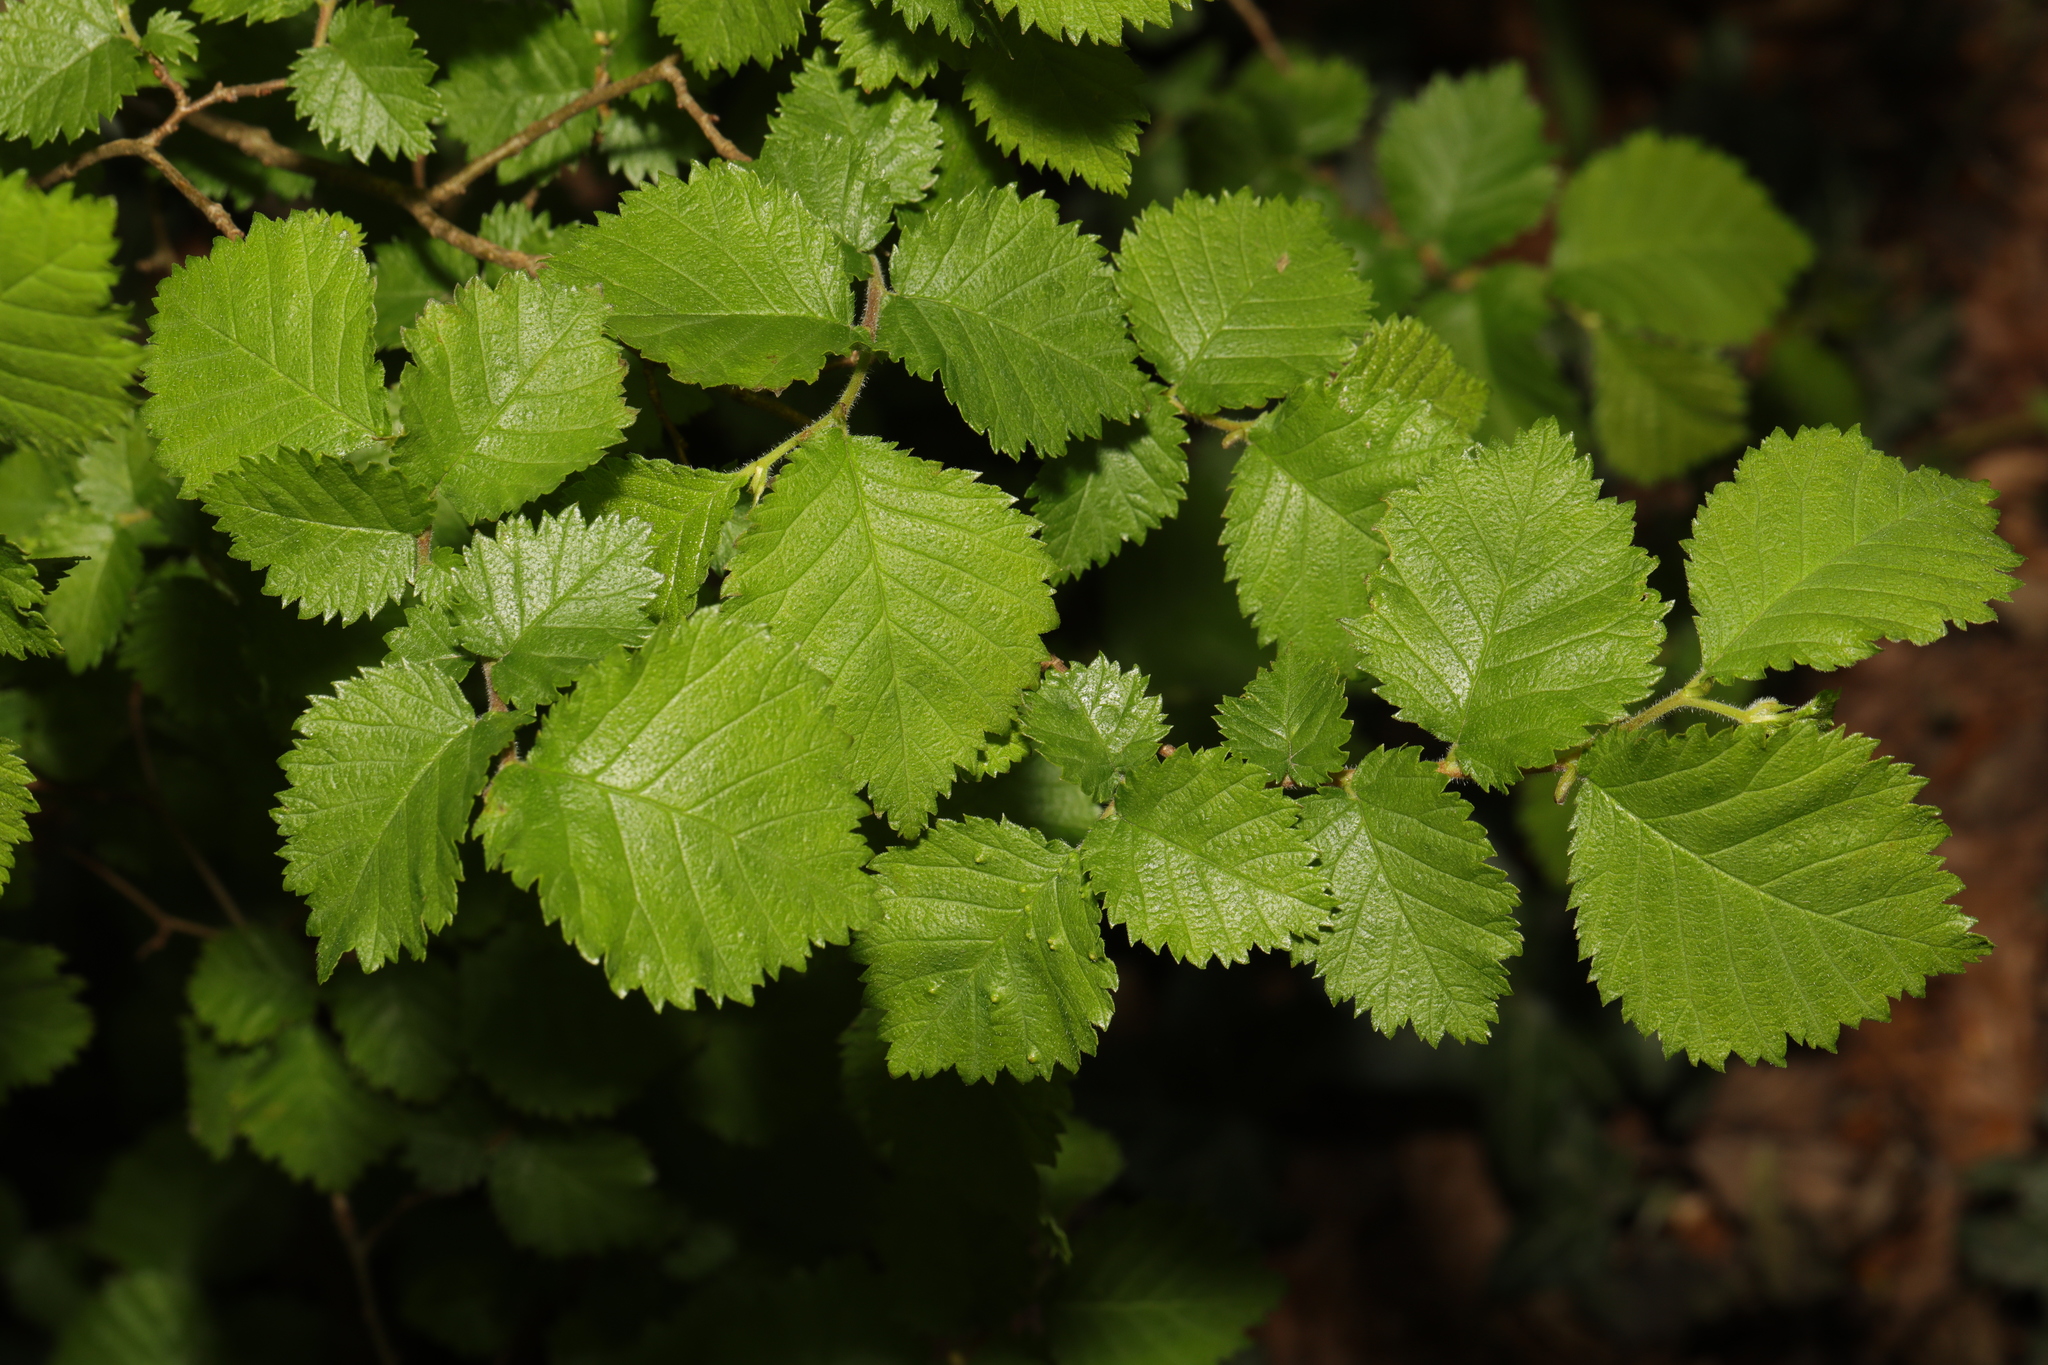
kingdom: Plantae
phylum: Tracheophyta
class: Magnoliopsida
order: Rosales
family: Ulmaceae
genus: Ulmus
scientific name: Ulmus minor
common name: Small-leaved elm
